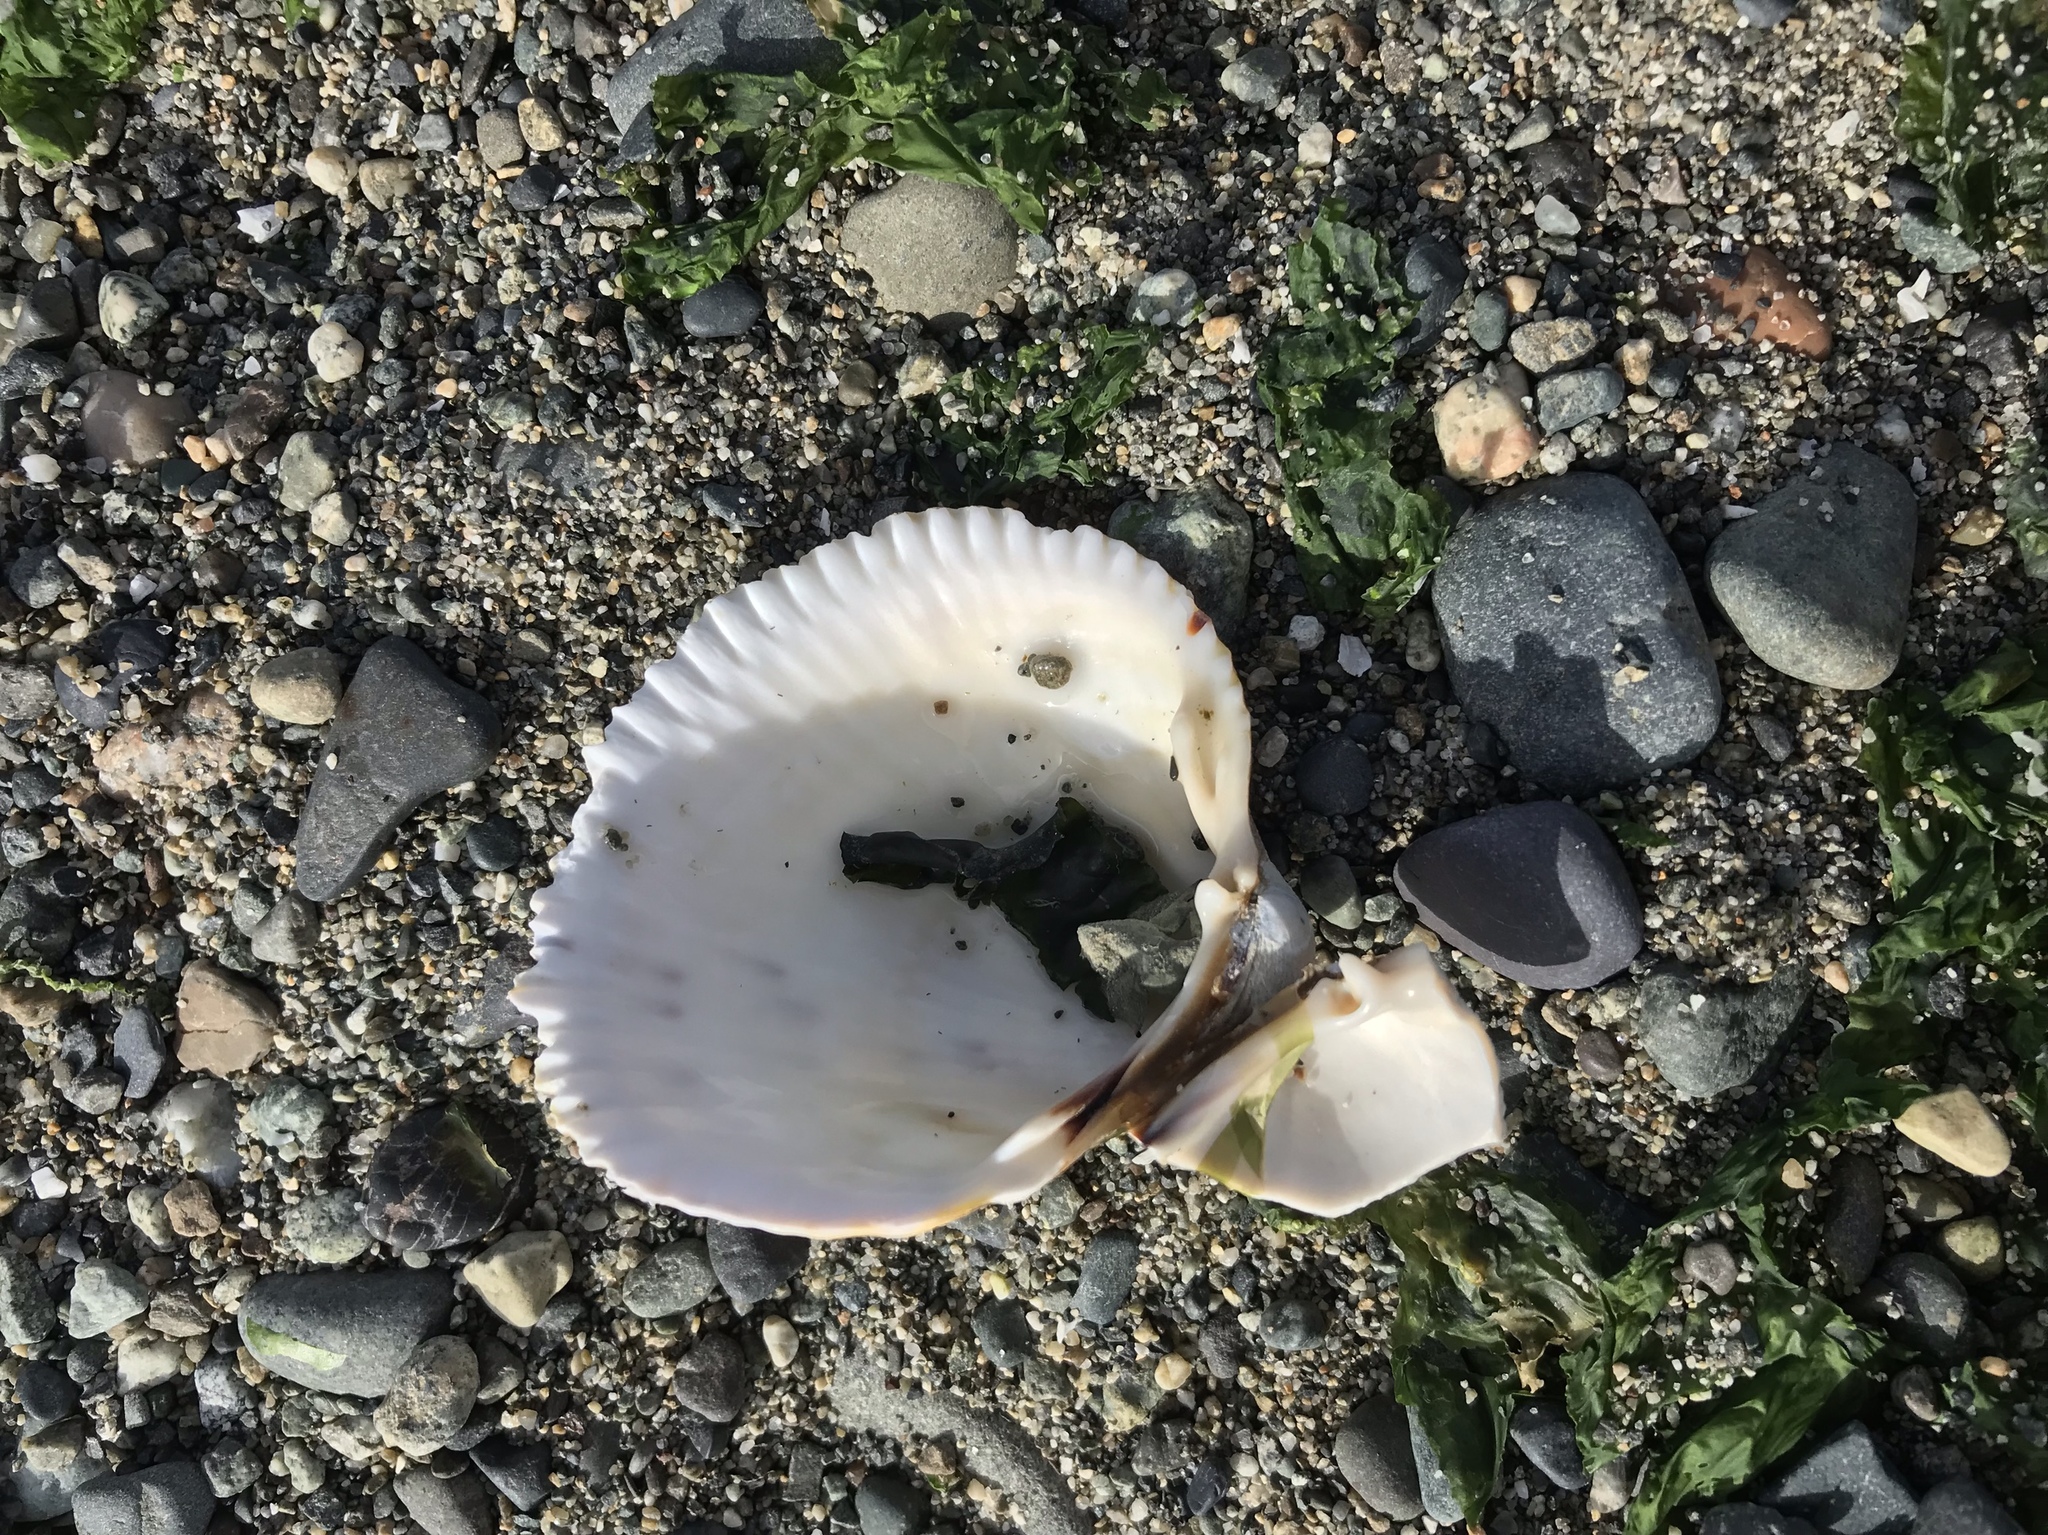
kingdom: Animalia
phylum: Mollusca
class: Bivalvia
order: Cardiida
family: Cardiidae
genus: Clinocardium
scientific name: Clinocardium nuttallii
